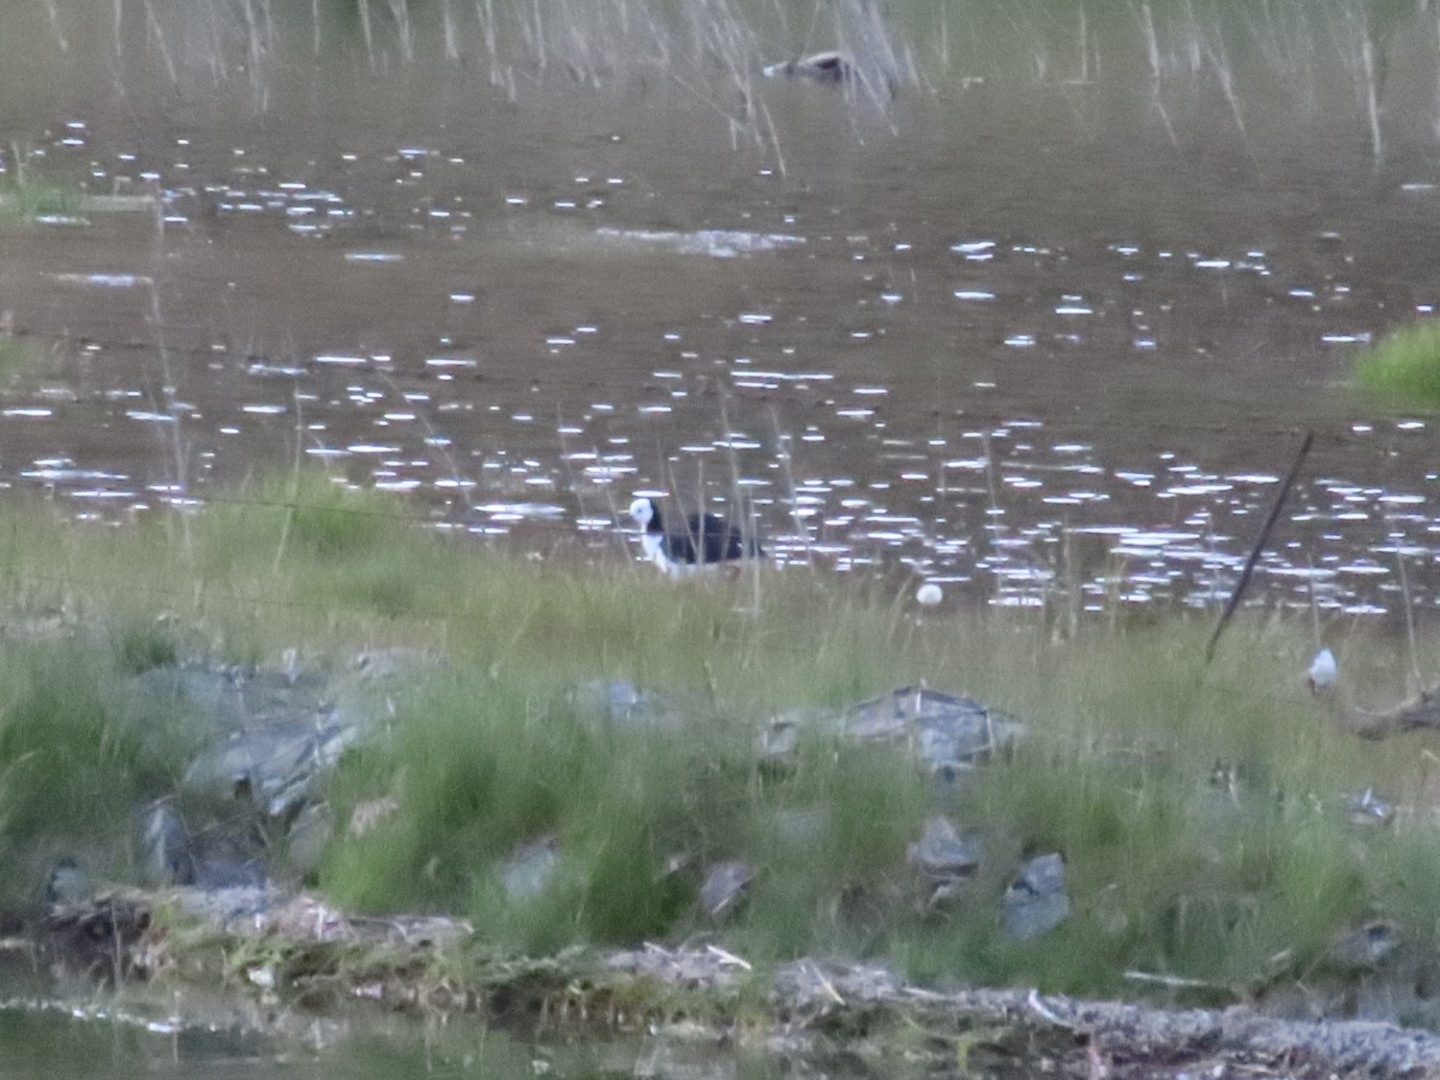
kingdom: Animalia
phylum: Chordata
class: Aves
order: Charadriiformes
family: Recurvirostridae
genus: Himantopus
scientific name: Himantopus leucocephalus
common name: White-headed stilt
